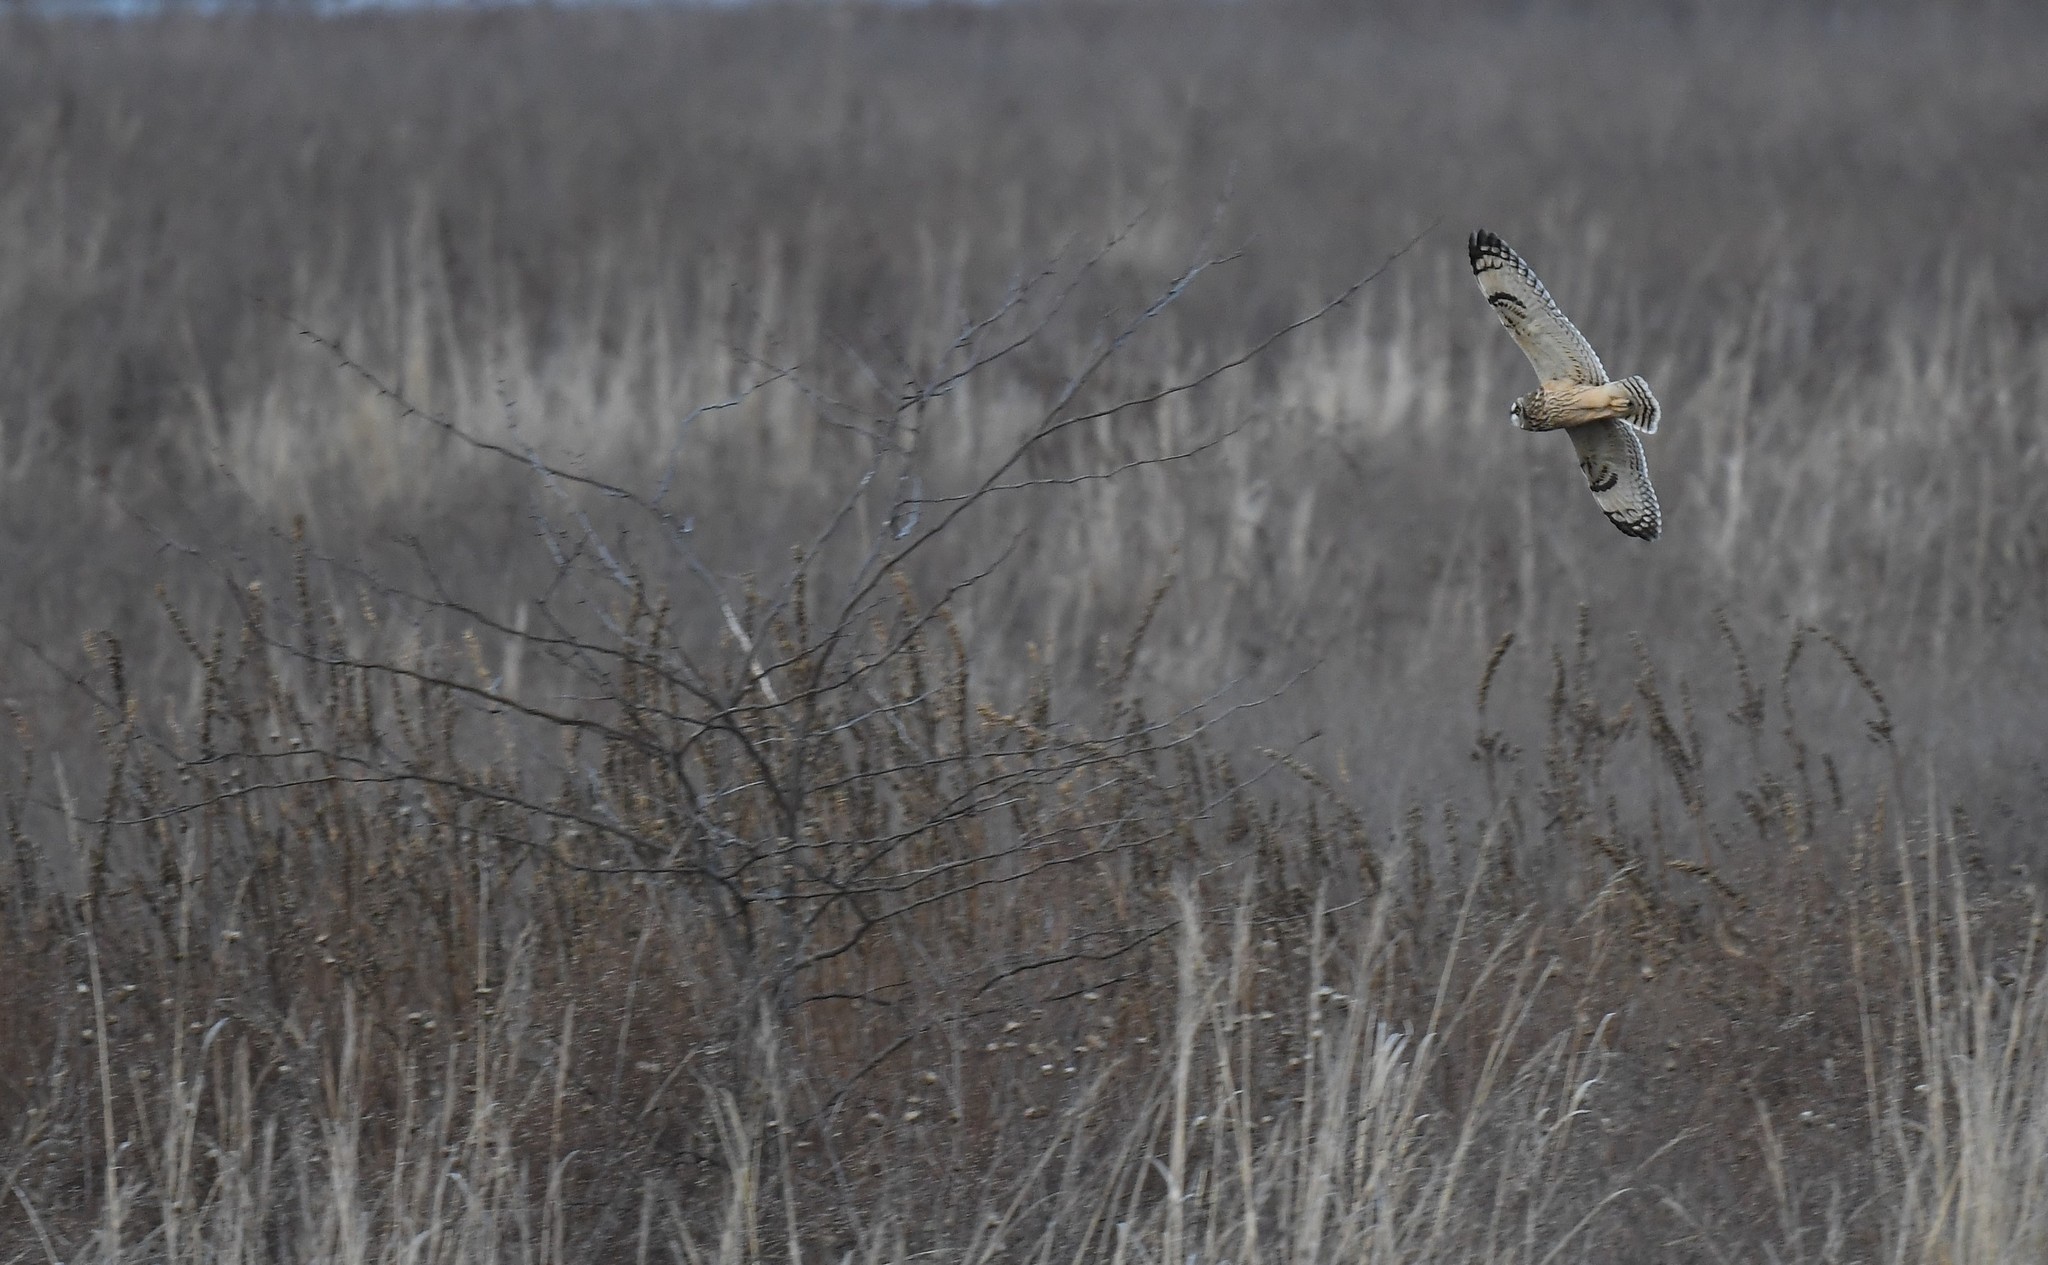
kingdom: Animalia
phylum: Chordata
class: Aves
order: Strigiformes
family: Strigidae
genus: Asio
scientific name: Asio flammeus
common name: Short-eared owl
